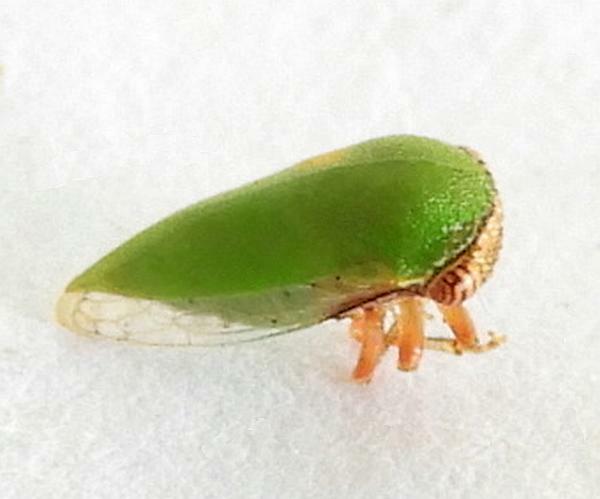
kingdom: Animalia
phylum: Arthropoda
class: Insecta
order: Hemiptera
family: Membracidae
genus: Idioderma
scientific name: Idioderma virescens
